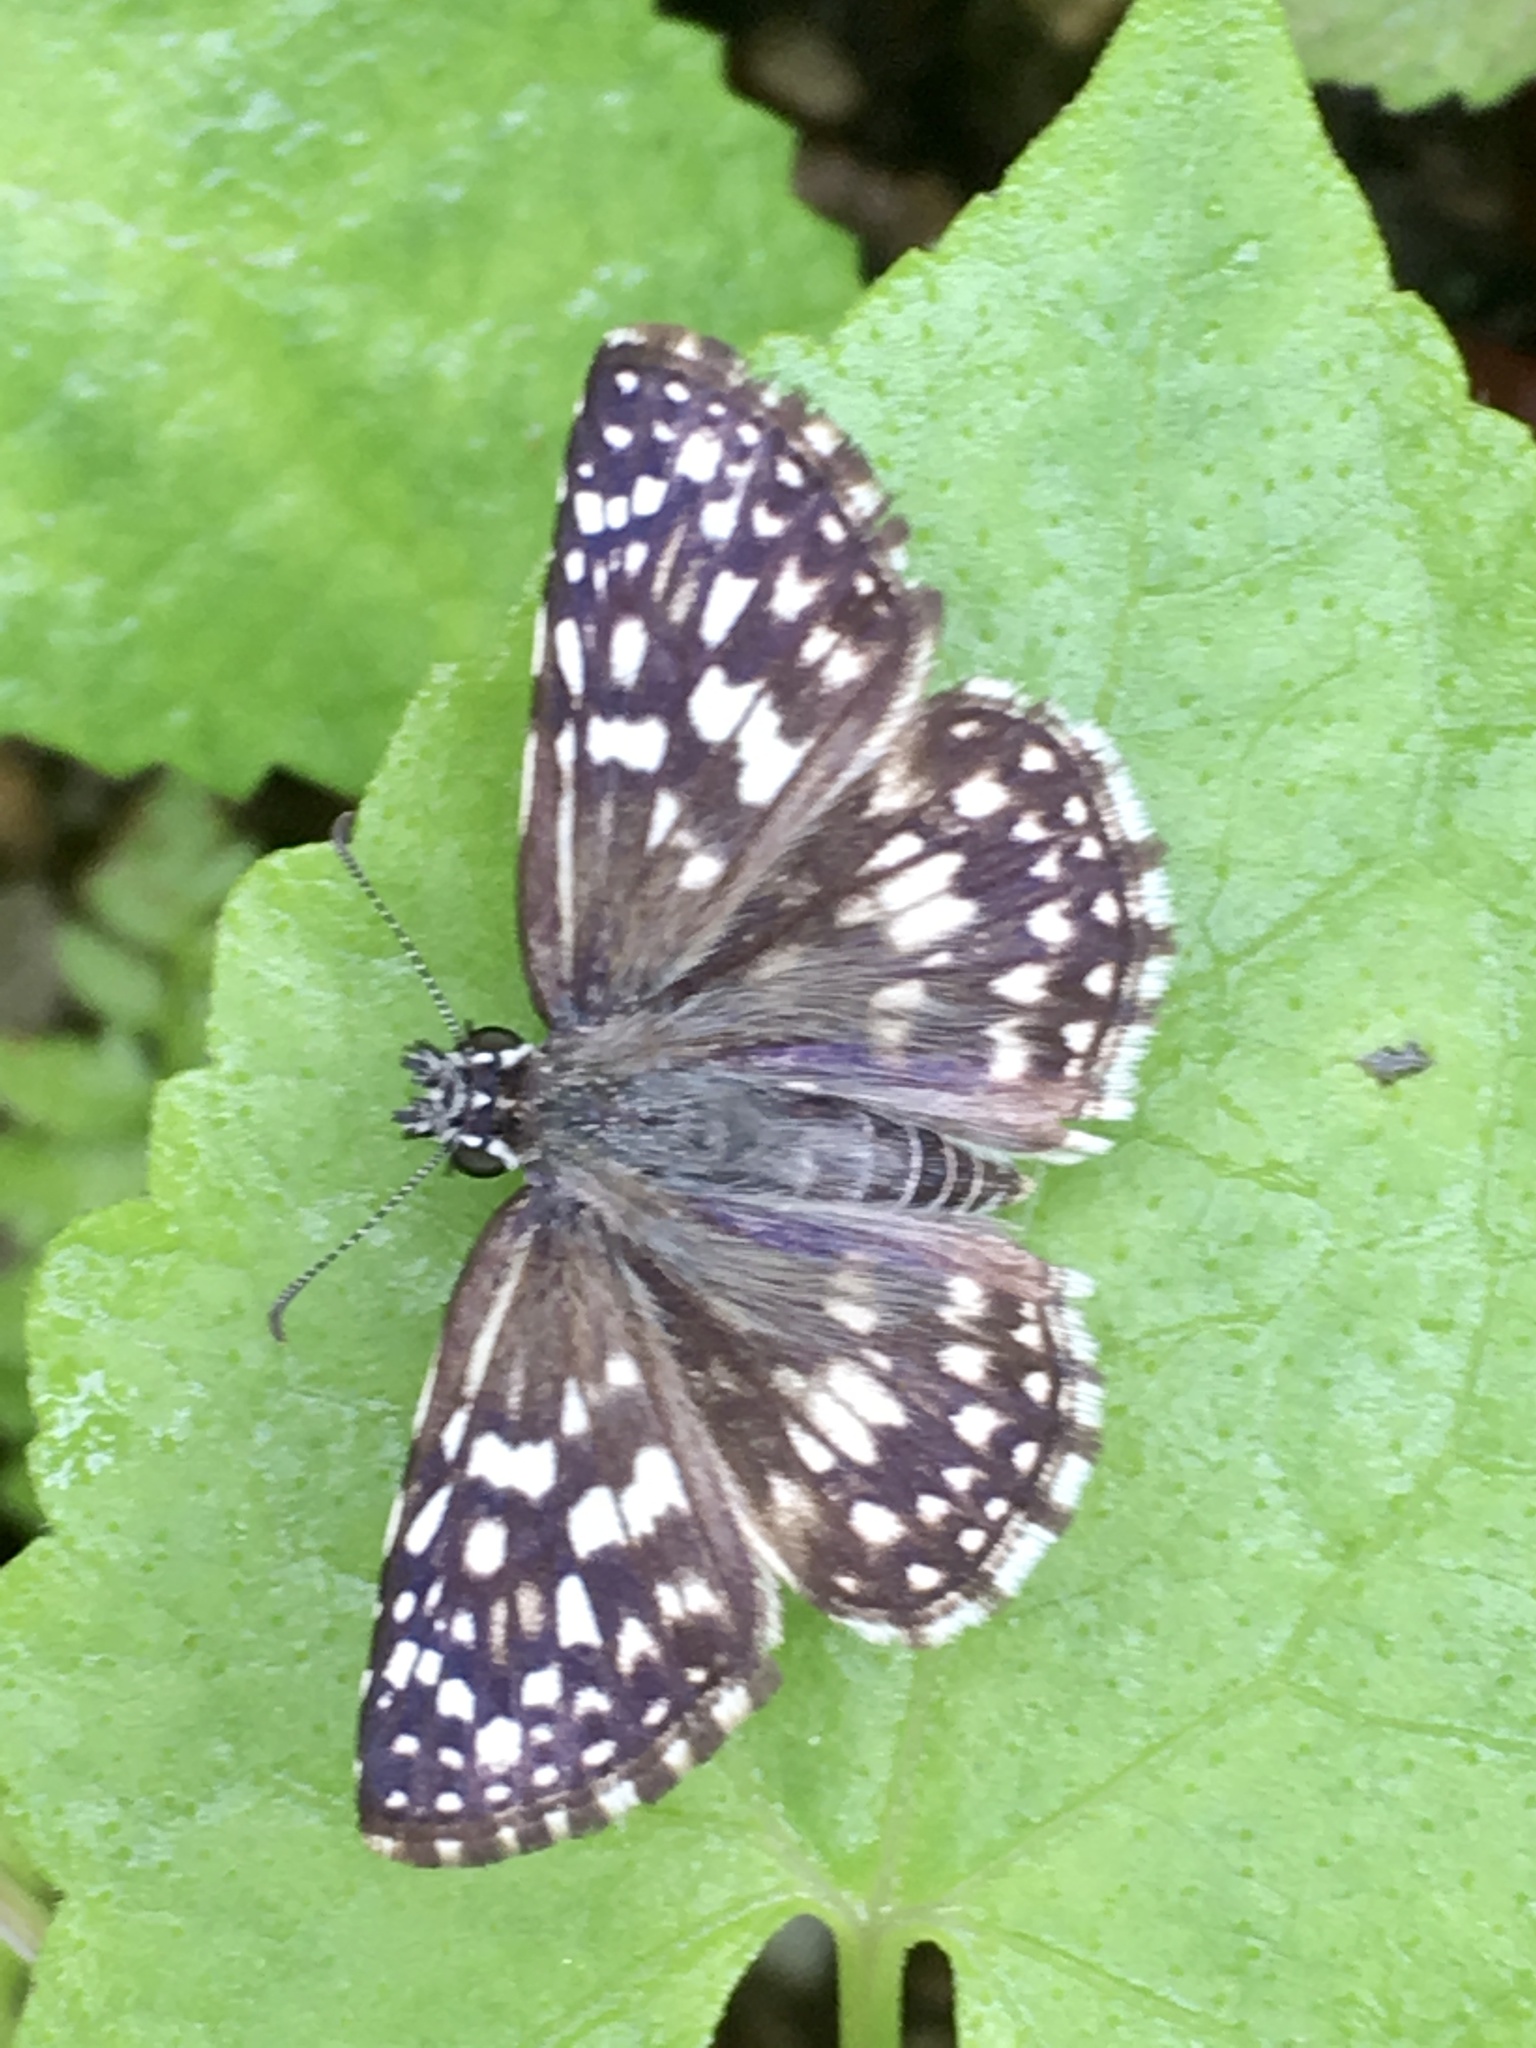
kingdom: Animalia
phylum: Arthropoda
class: Insecta
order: Lepidoptera
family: Hesperiidae
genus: Pyrgus
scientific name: Pyrgus oileus
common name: Tropical checkered-skipper
